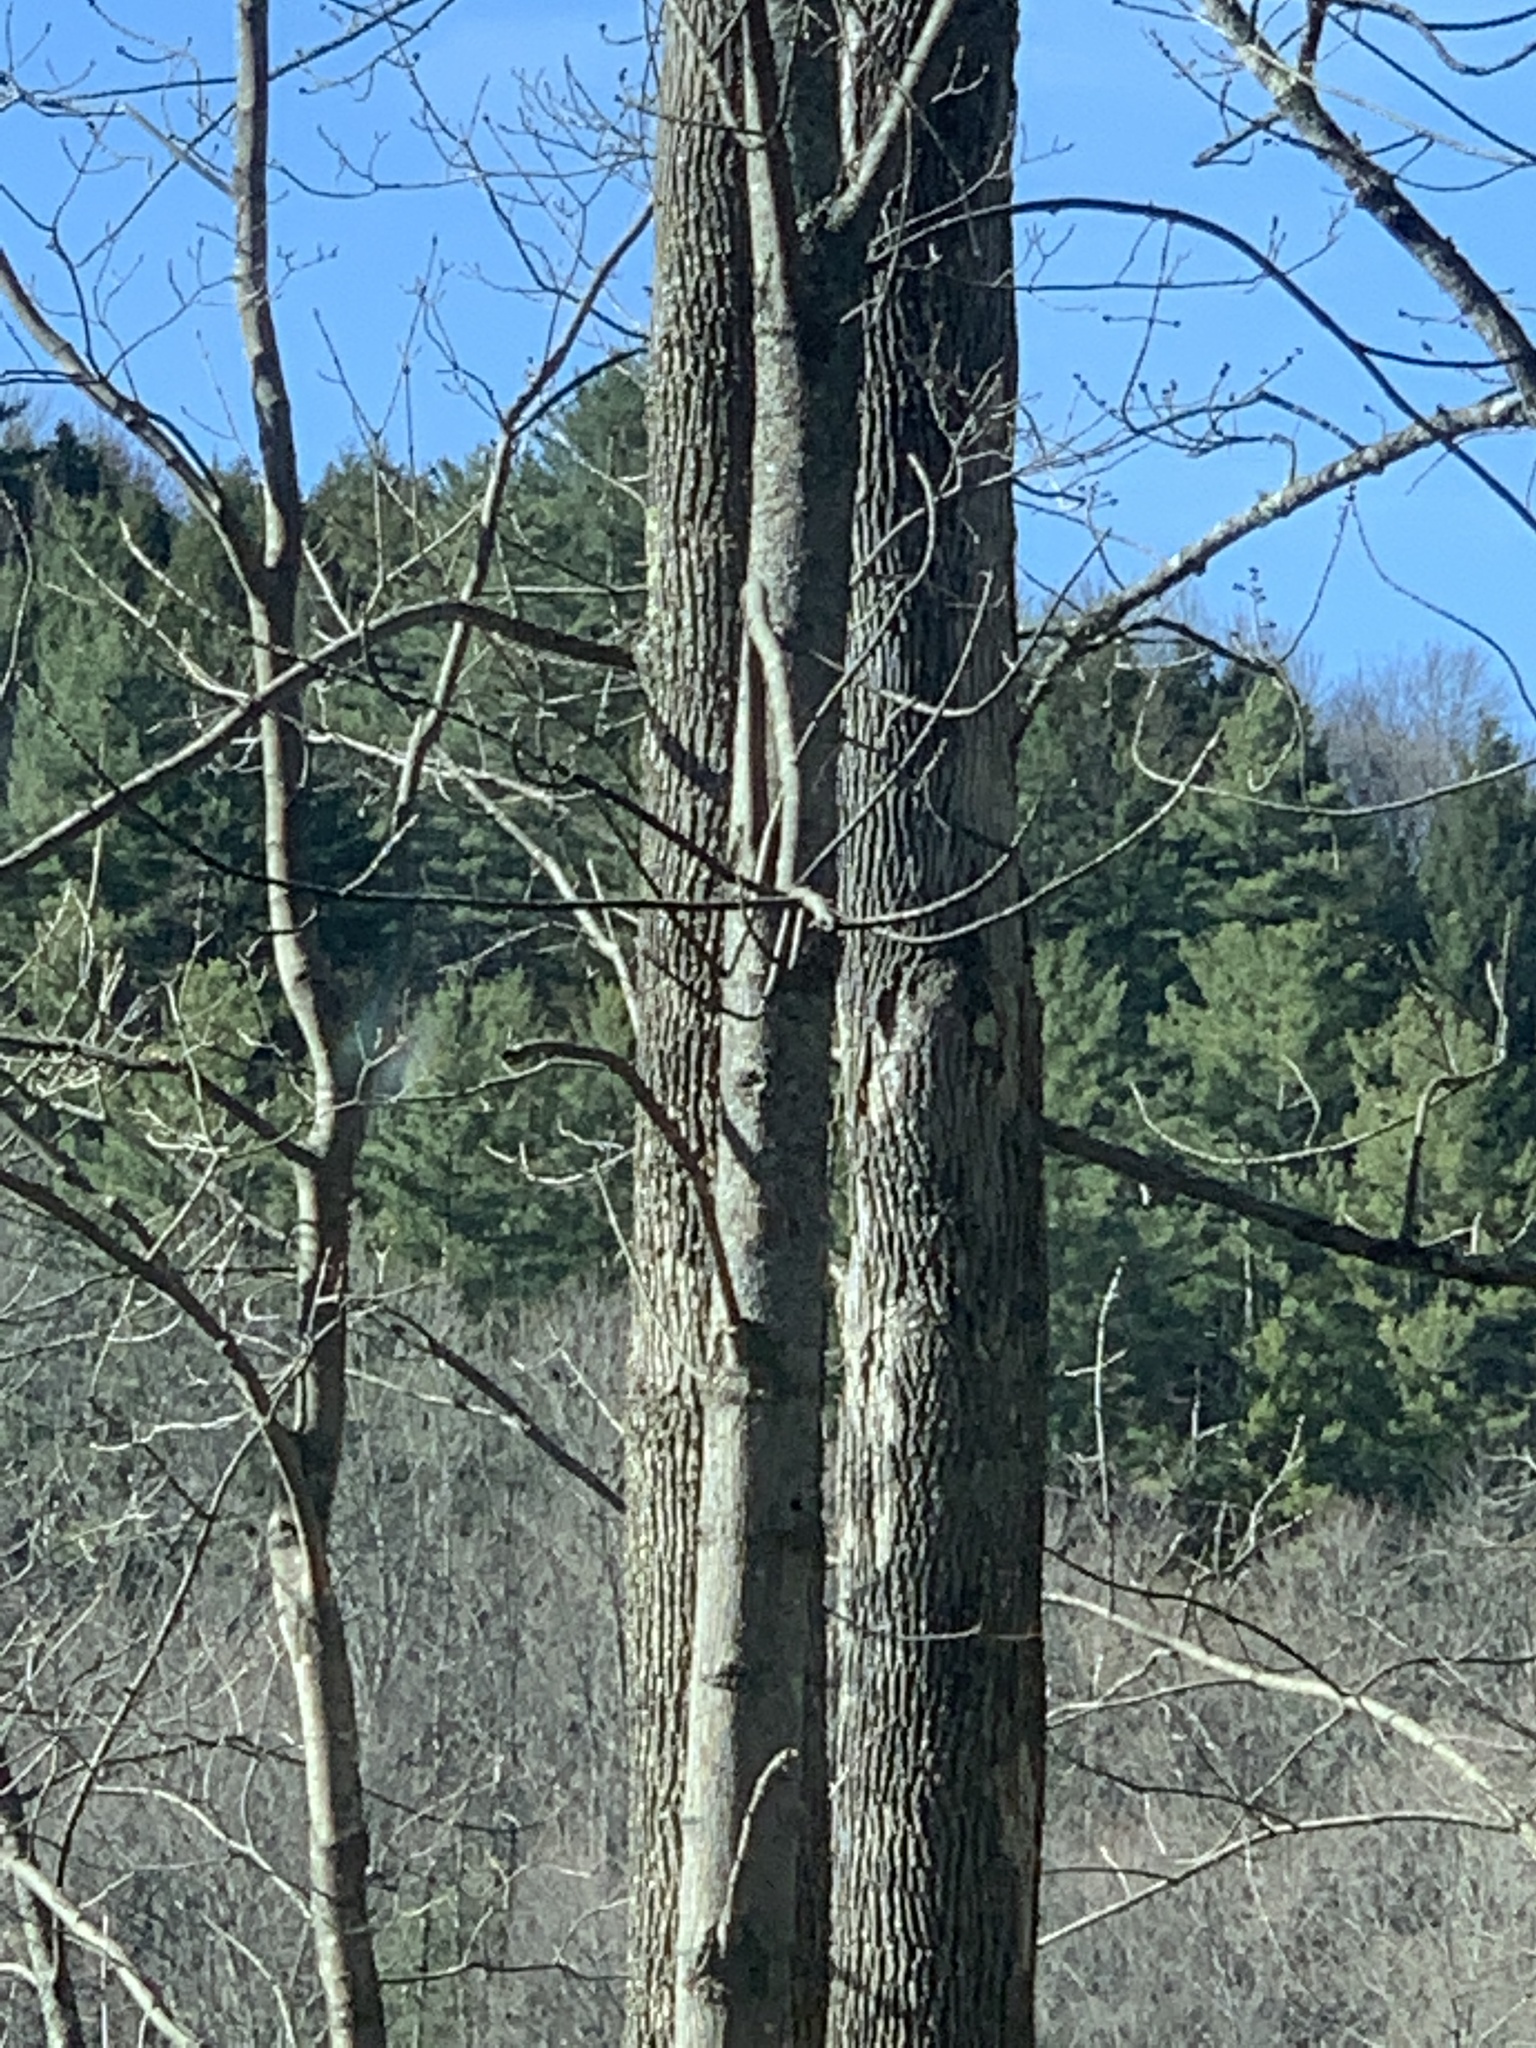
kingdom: Plantae
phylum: Tracheophyta
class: Magnoliopsida
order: Lamiales
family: Oleaceae
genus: Fraxinus
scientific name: Fraxinus americana
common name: White ash
